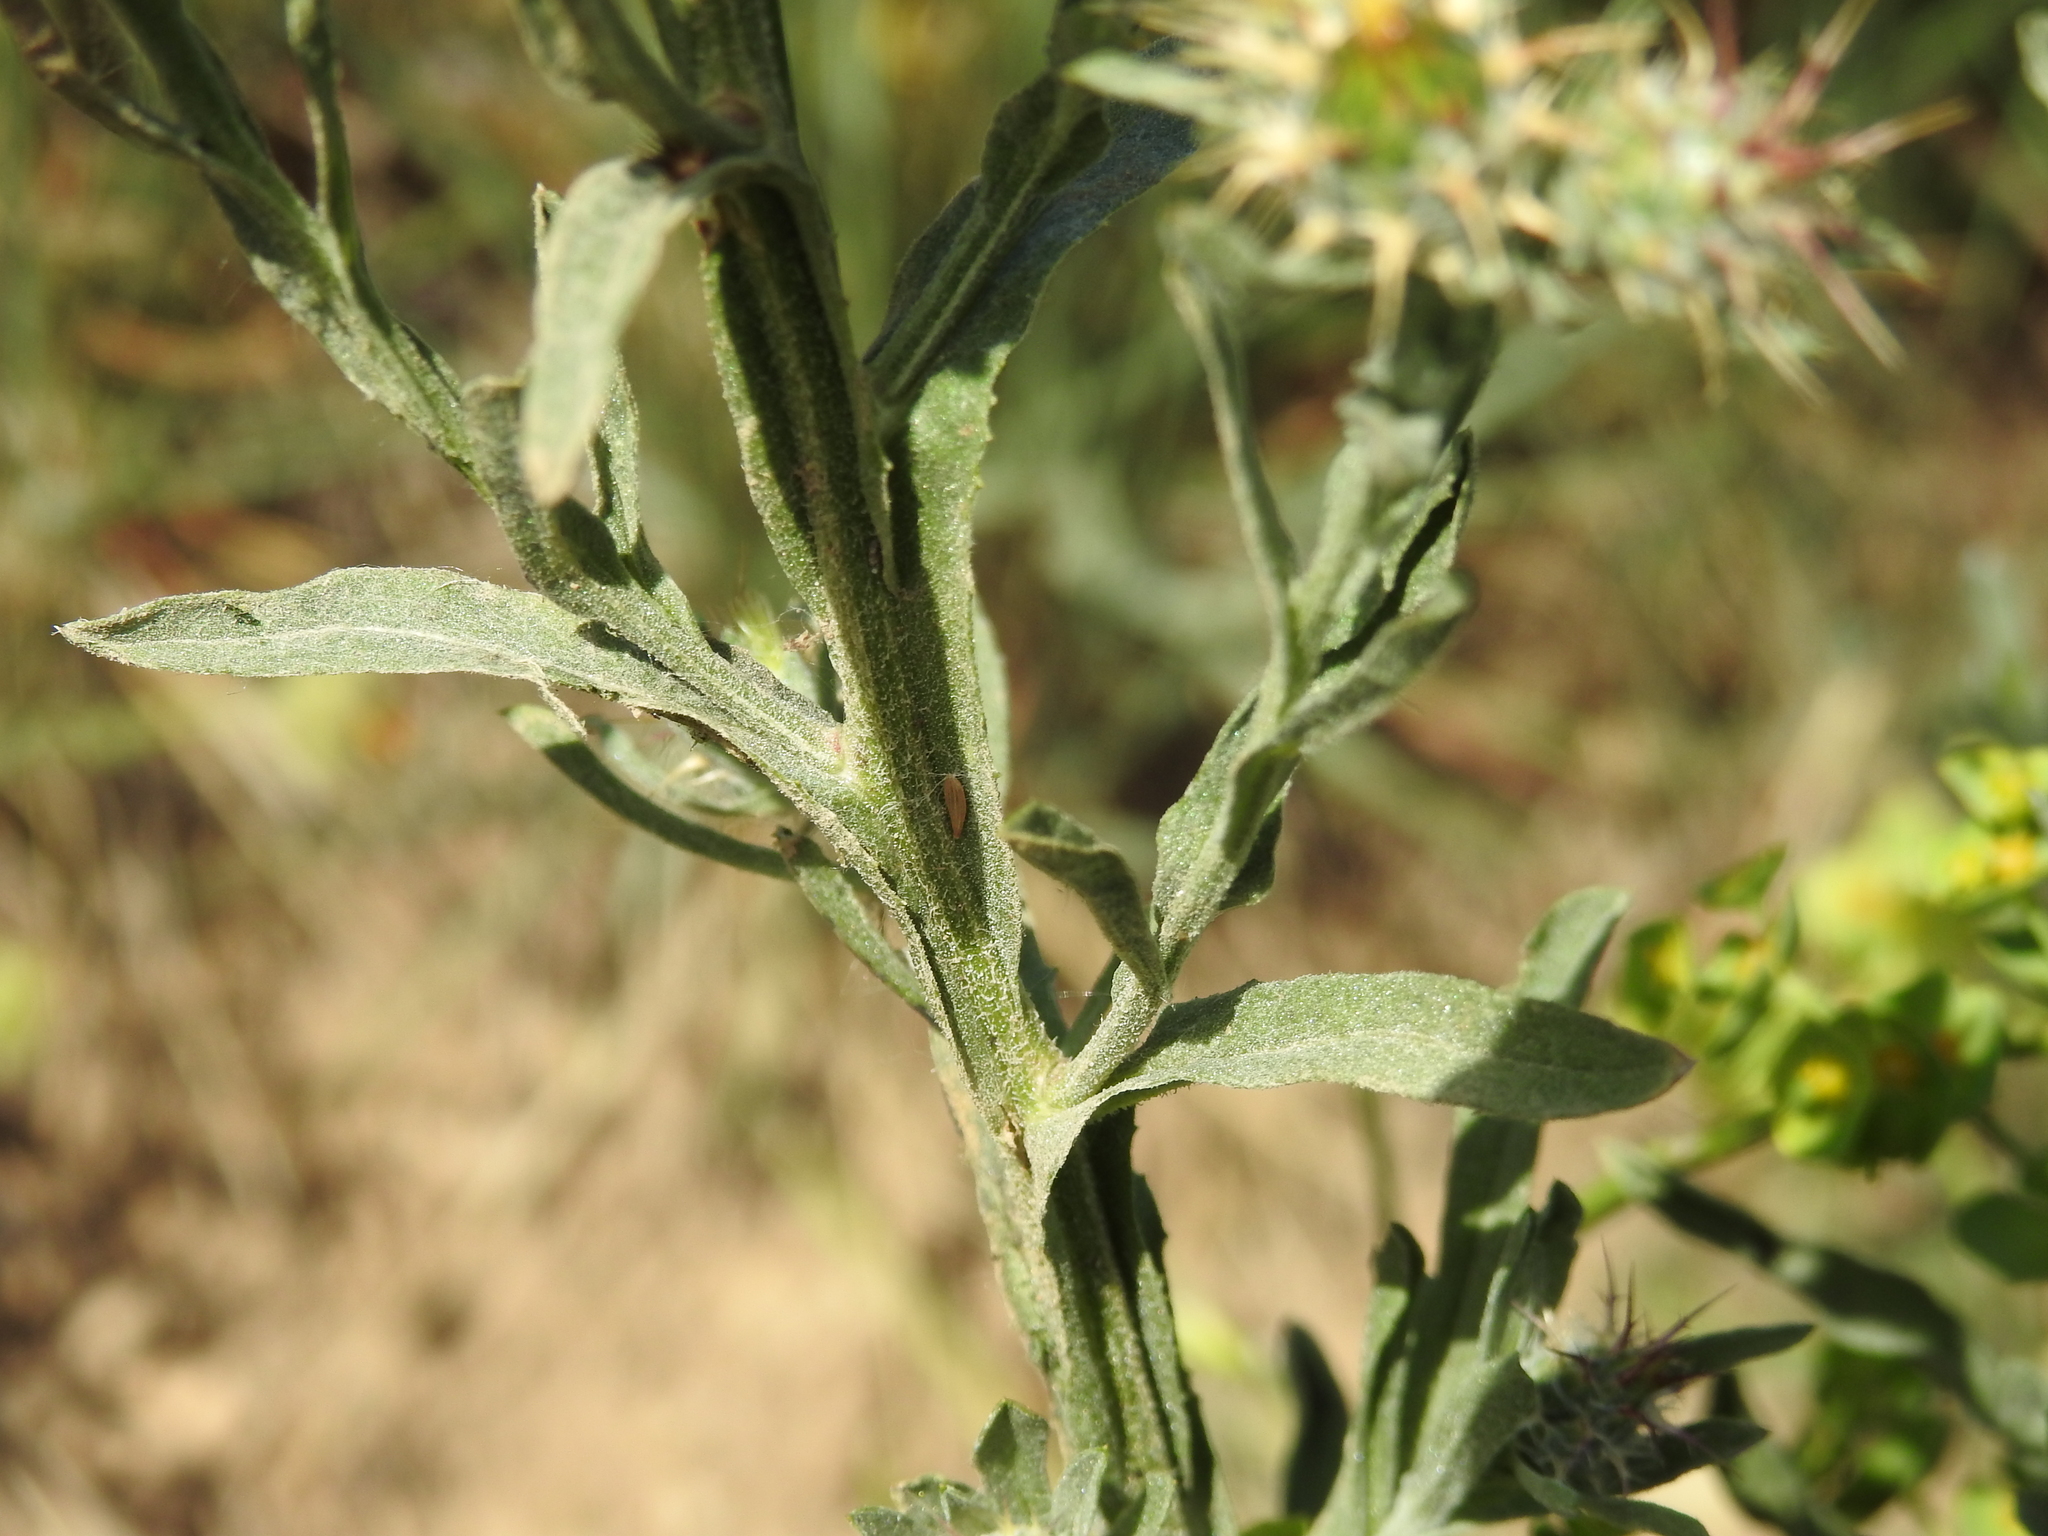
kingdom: Plantae
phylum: Tracheophyta
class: Magnoliopsida
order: Asterales
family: Asteraceae
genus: Centaurea
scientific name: Centaurea melitensis
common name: Maltese star-thistle
